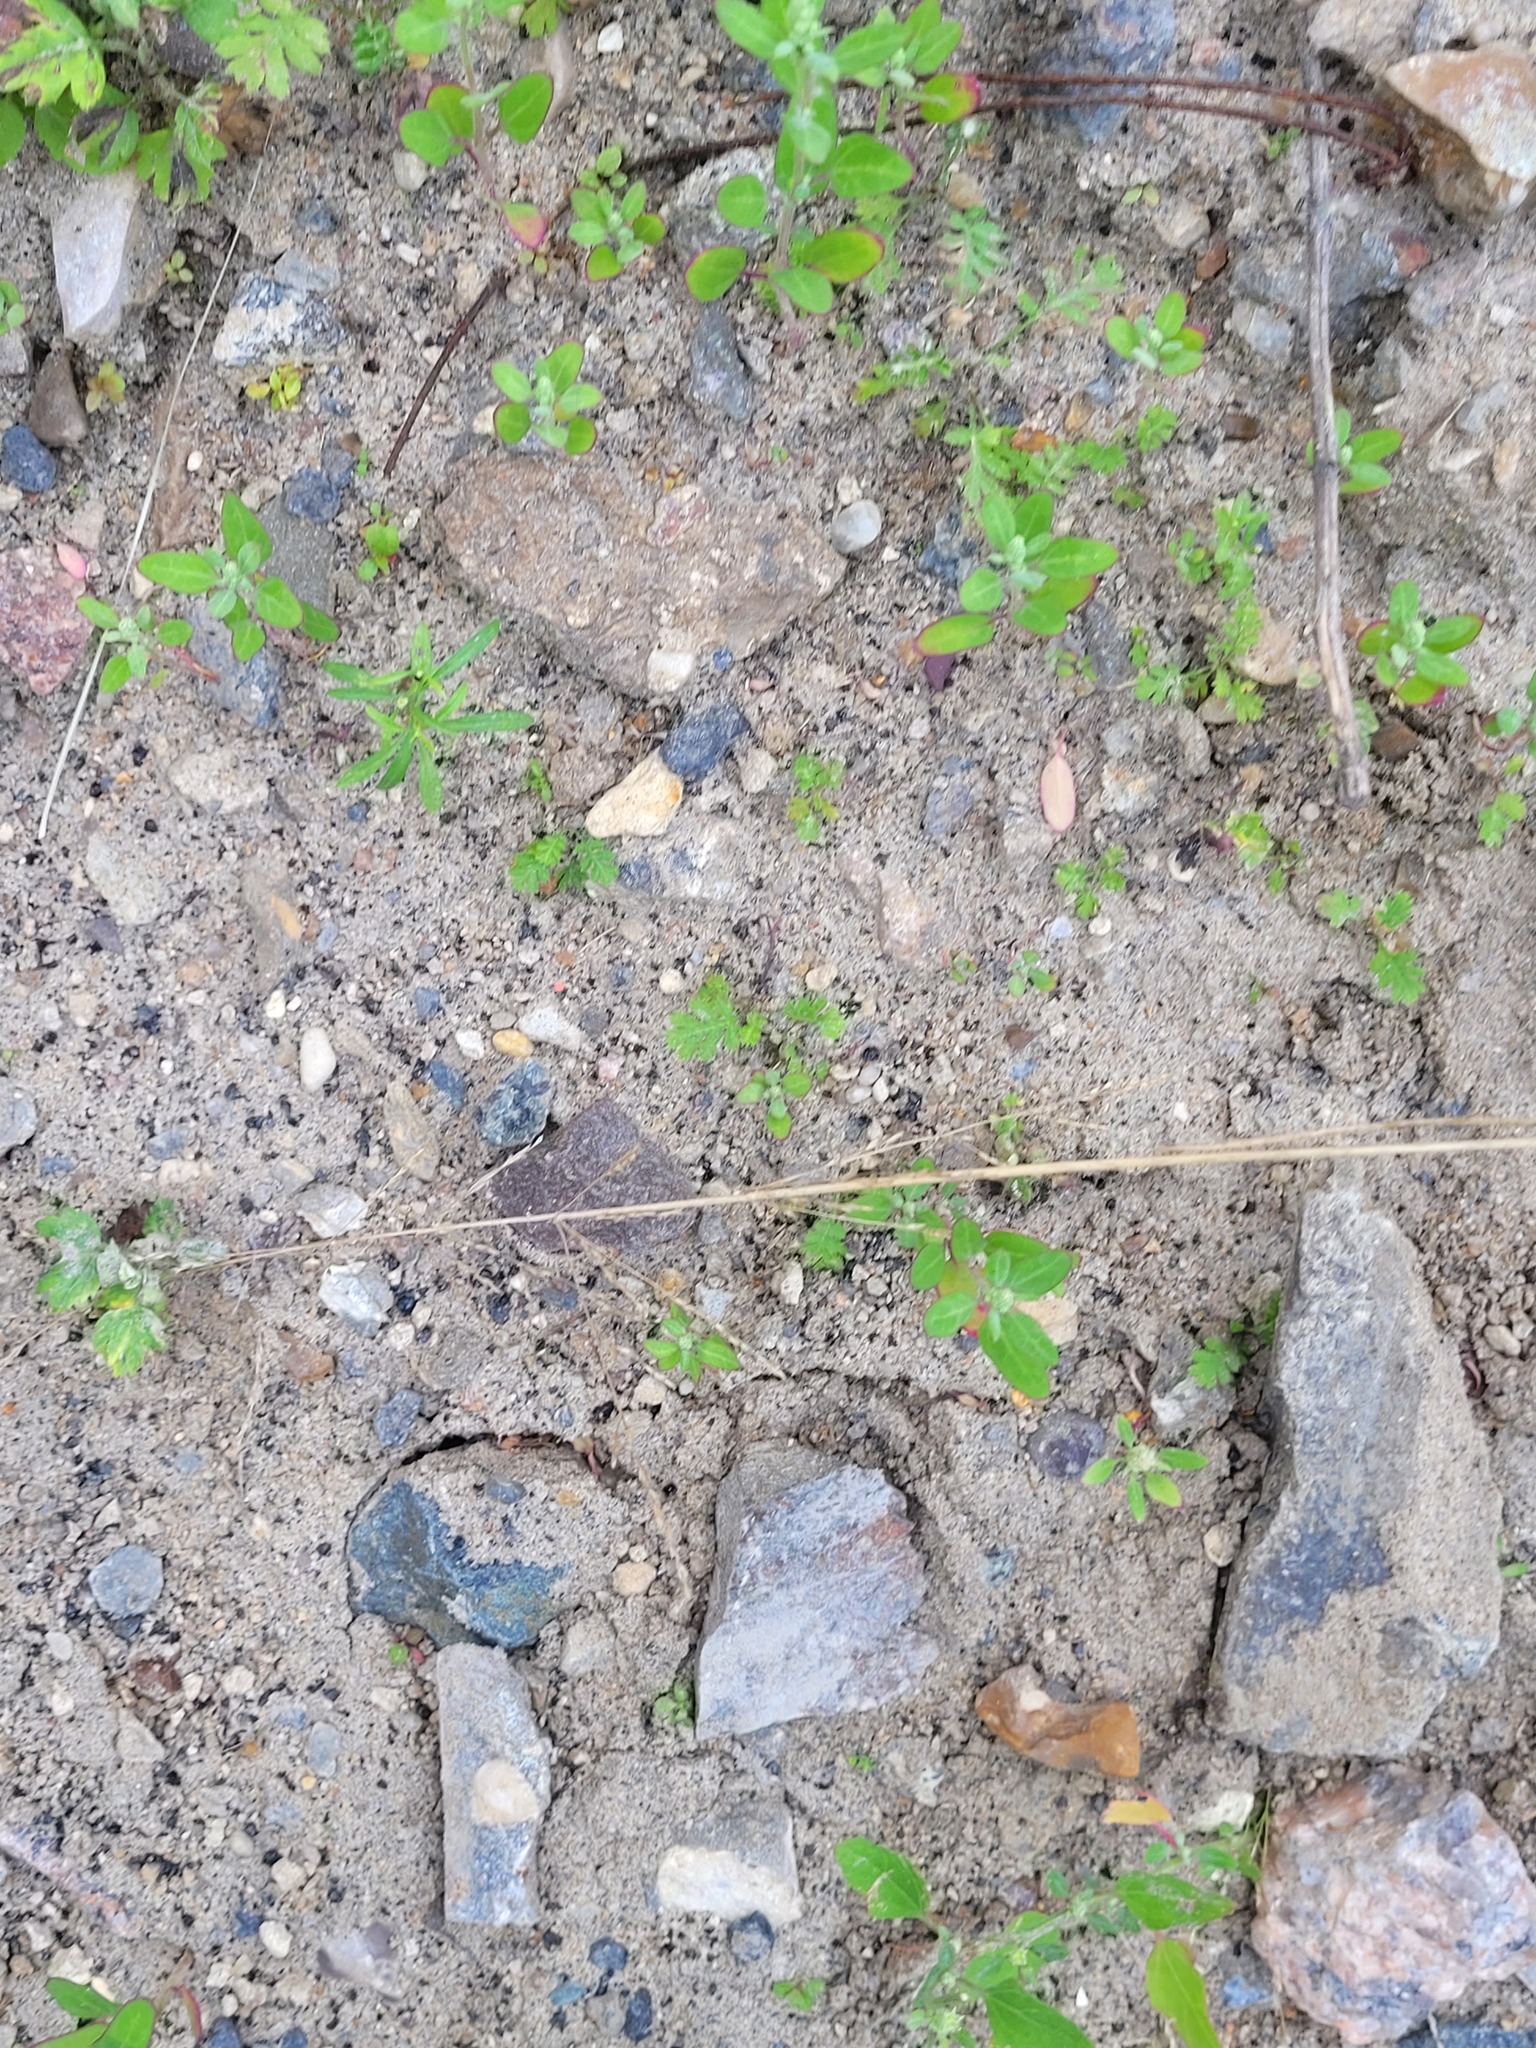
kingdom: Plantae
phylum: Tracheophyta
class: Liliopsida
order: Poales
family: Poaceae
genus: Puccinellia
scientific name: Puccinellia distans
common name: Weeping alkaligrass
